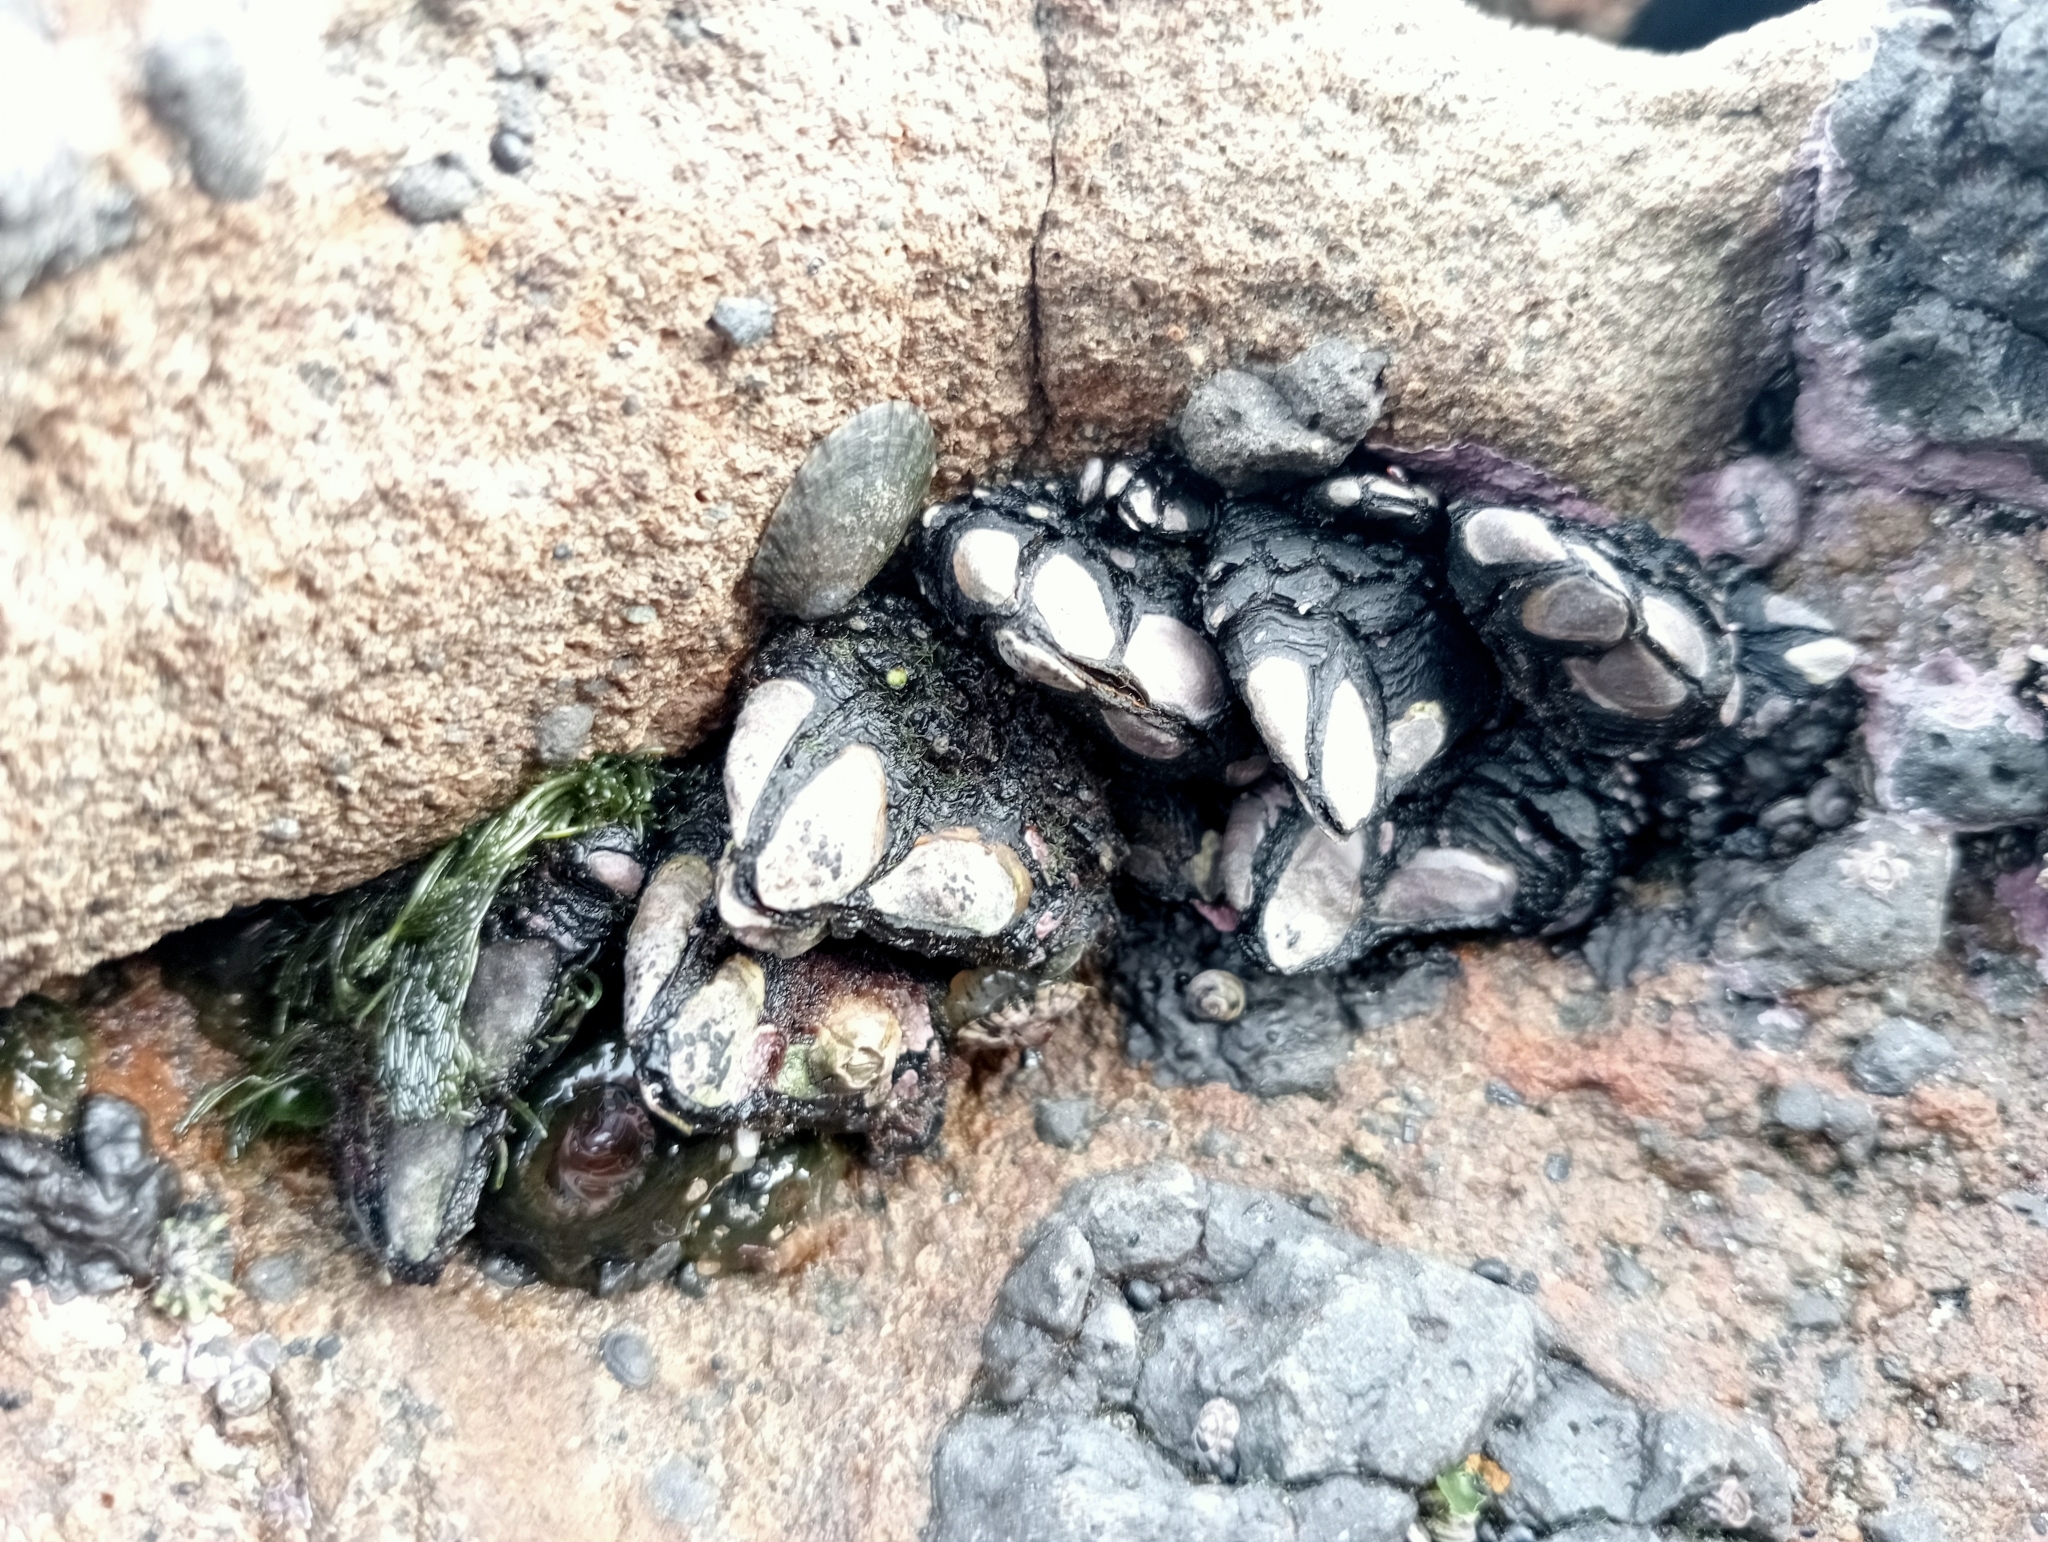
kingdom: Animalia
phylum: Arthropoda
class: Maxillopoda
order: Pedunculata
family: Calanticidae
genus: Calantica
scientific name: Calantica spinosa
